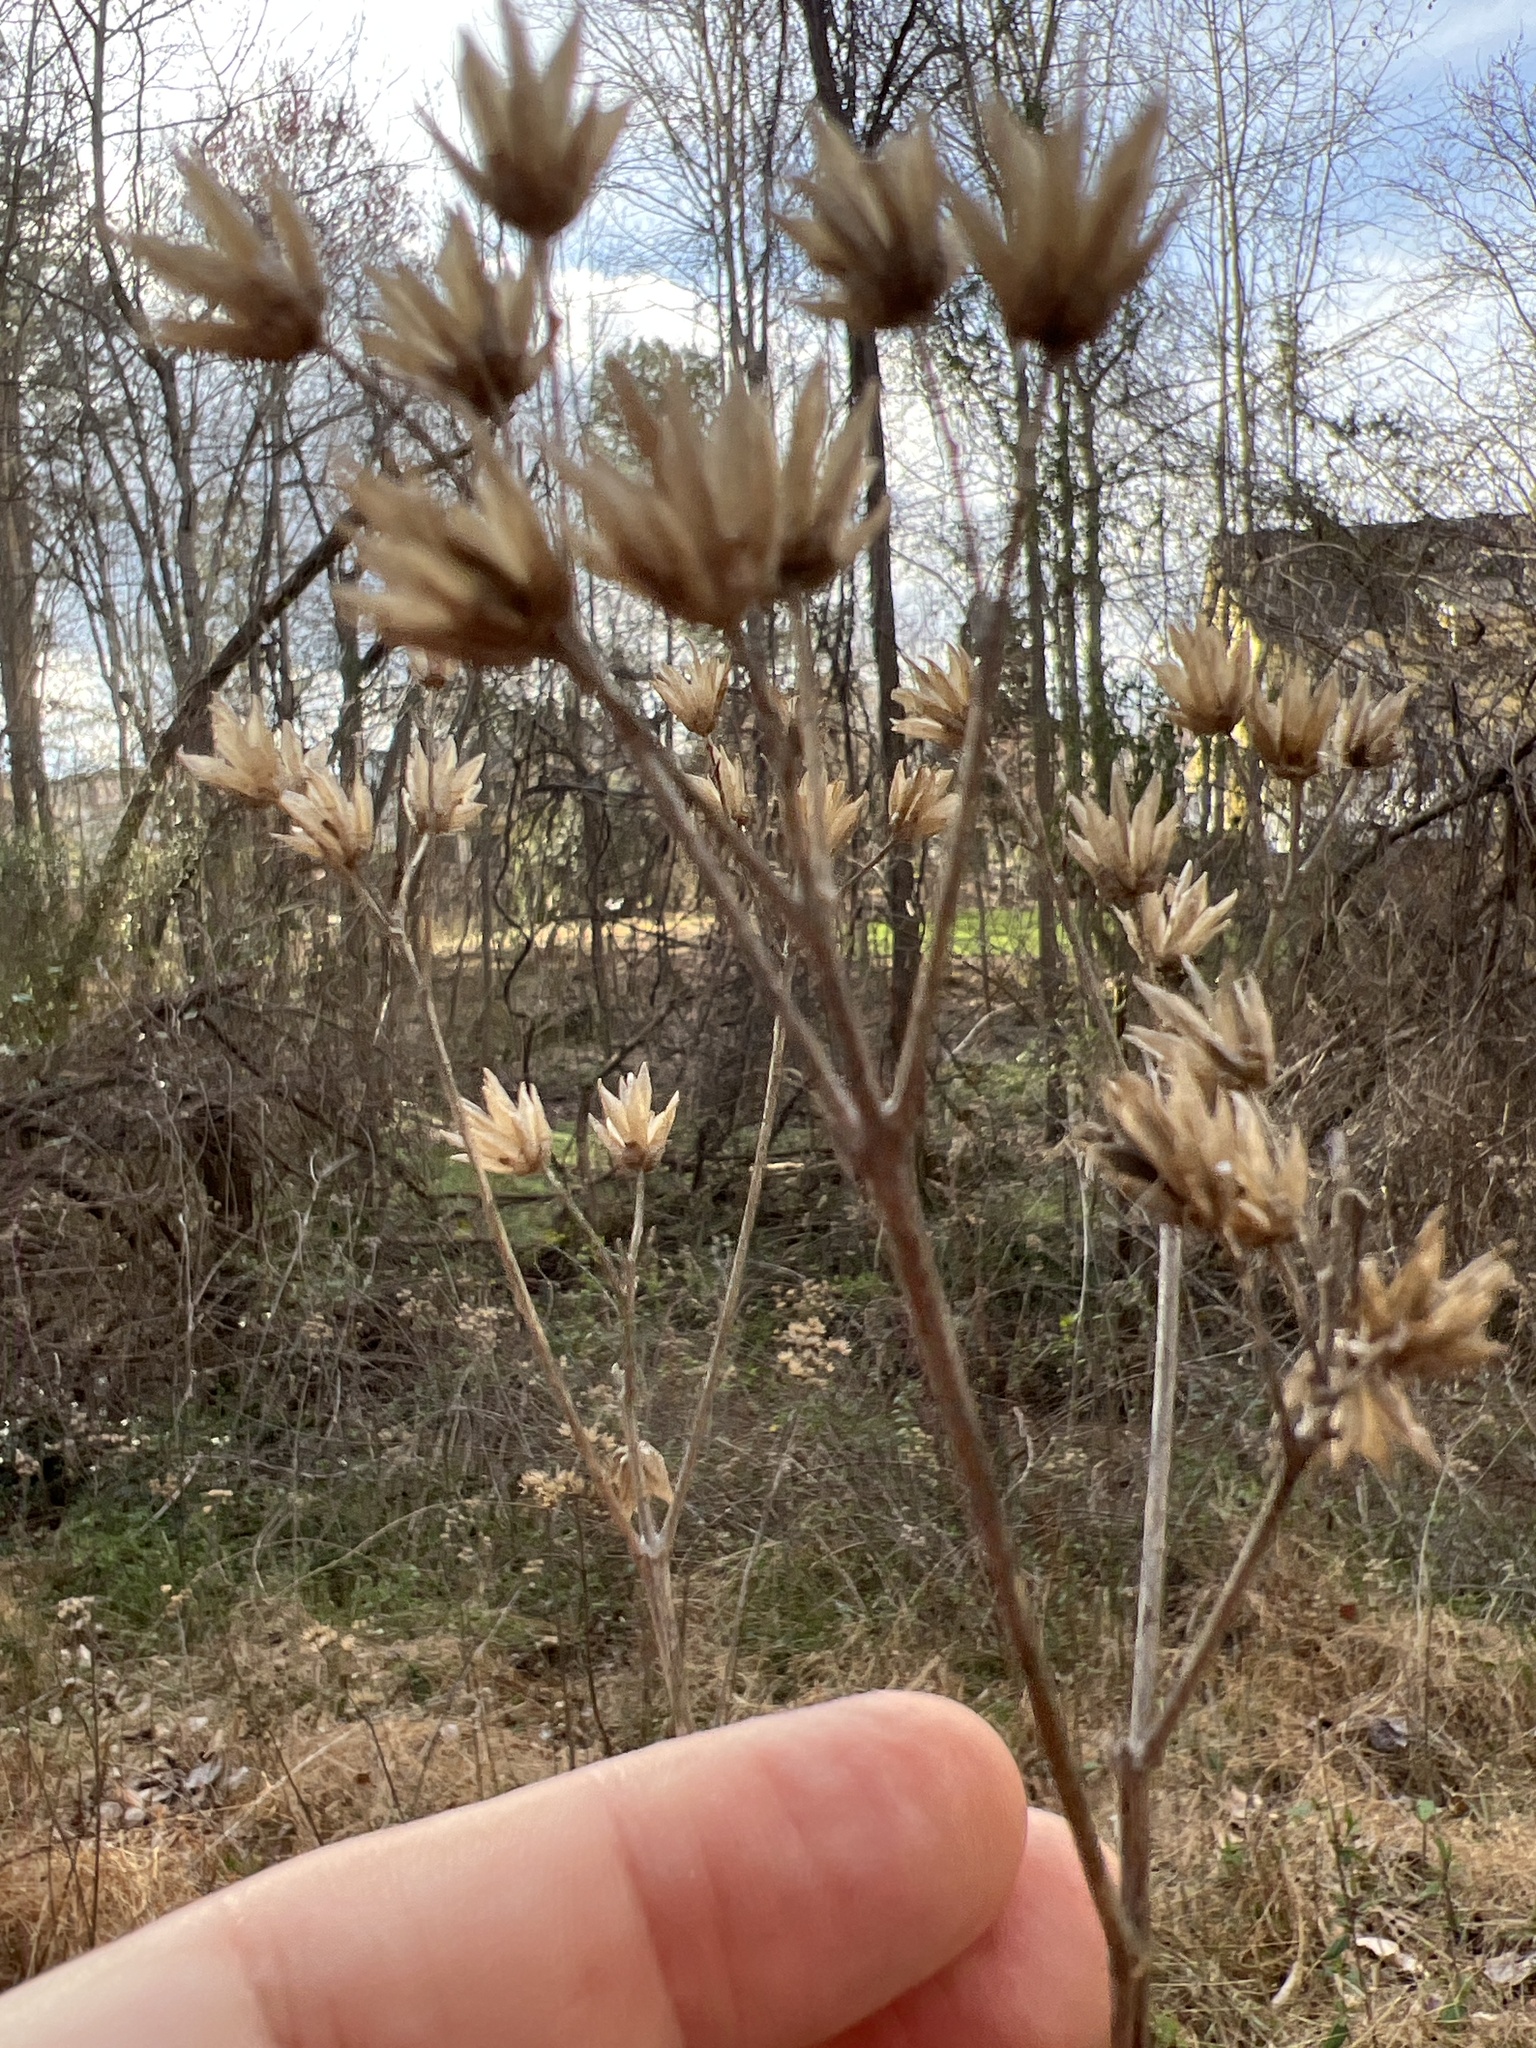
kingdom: Plantae
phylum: Tracheophyta
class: Magnoliopsida
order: Asterales
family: Asteraceae
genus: Verbesina
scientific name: Verbesina occidentalis
